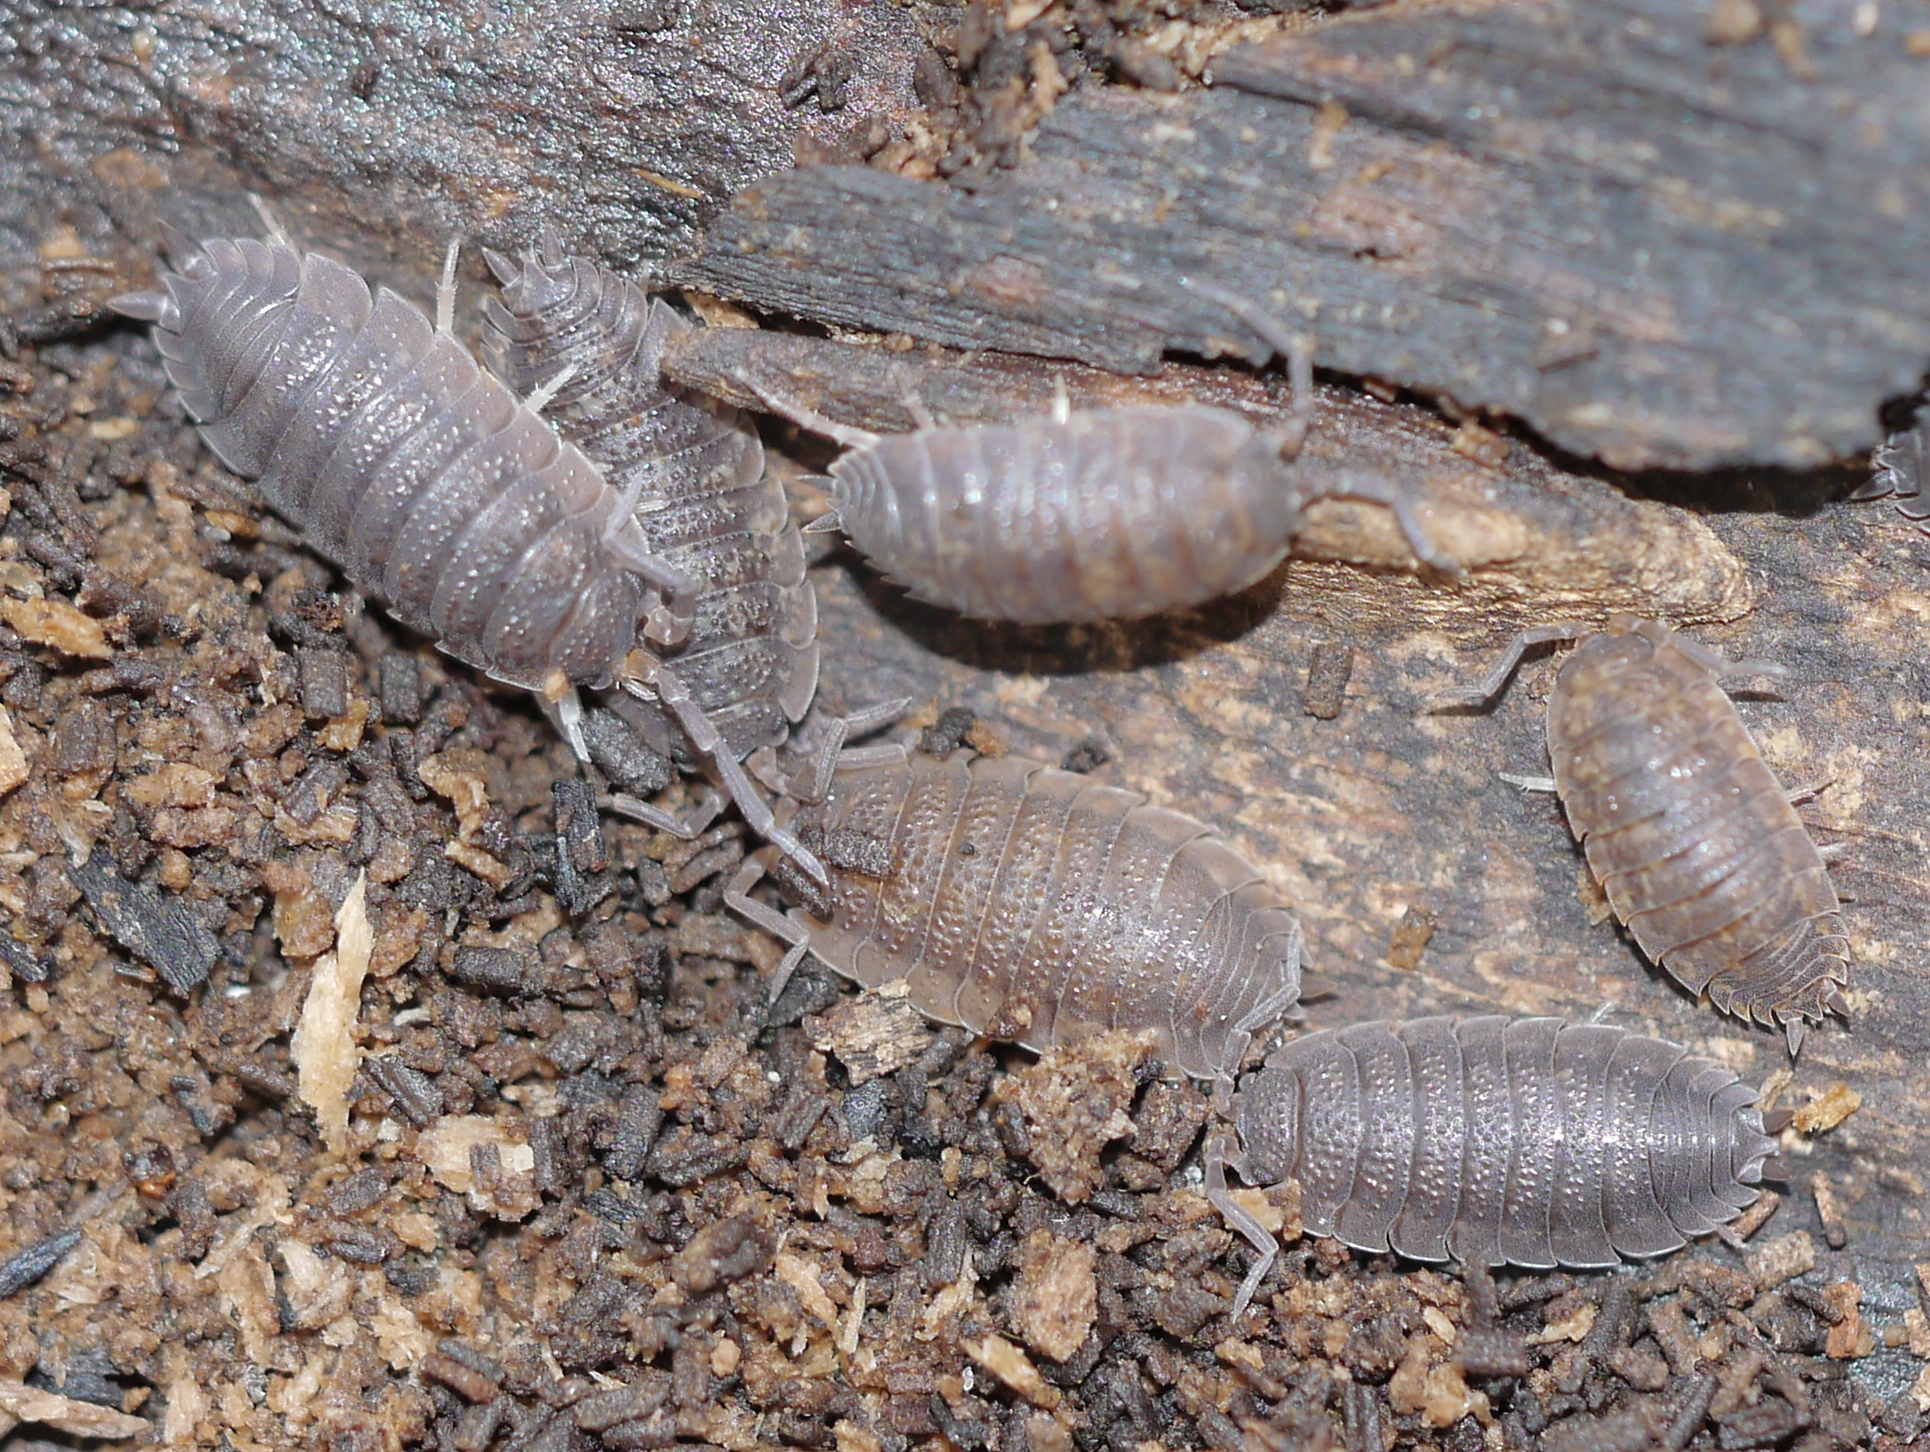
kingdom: Animalia
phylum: Arthropoda
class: Malacostraca
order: Isopoda
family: Porcellionidae
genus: Porcellio
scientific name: Porcellio scaber
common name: Common rough woodlouse
